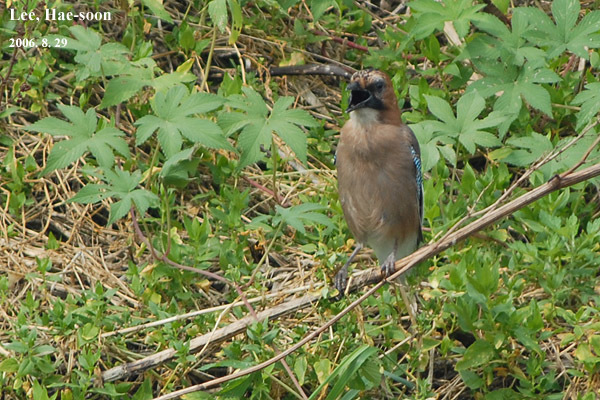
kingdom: Animalia
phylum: Chordata
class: Aves
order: Passeriformes
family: Corvidae
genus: Garrulus
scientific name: Garrulus glandarius
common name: Eurasian jay
